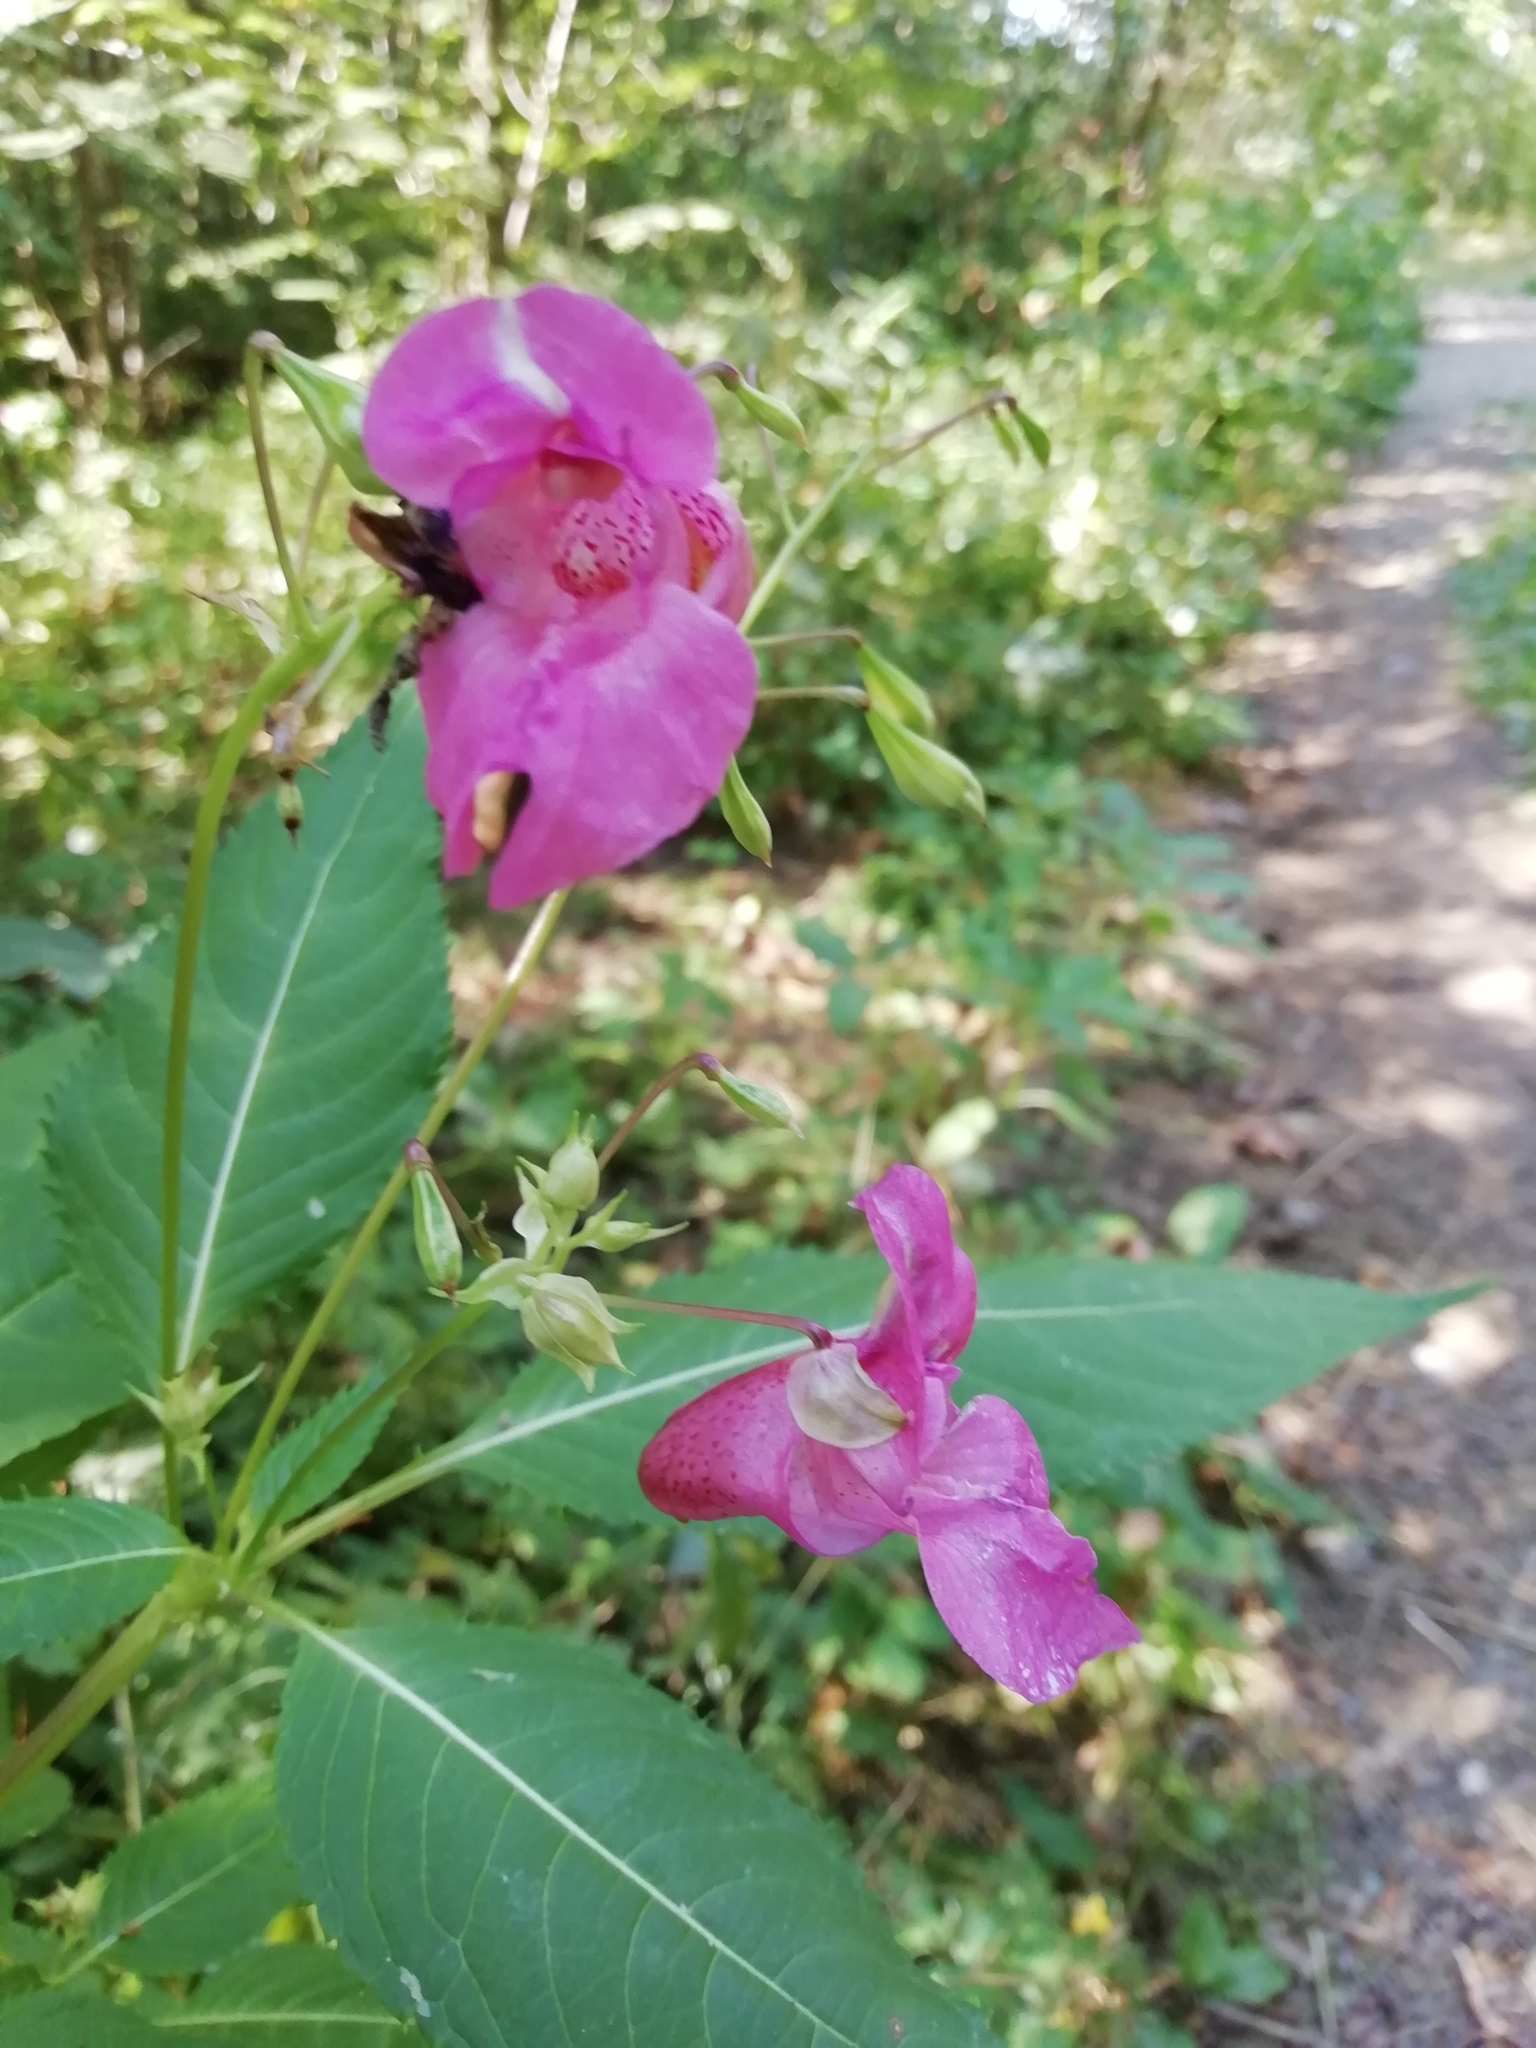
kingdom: Plantae
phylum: Tracheophyta
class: Magnoliopsida
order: Ericales
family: Balsaminaceae
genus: Impatiens
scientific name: Impatiens glandulifera
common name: Himalayan balsam
